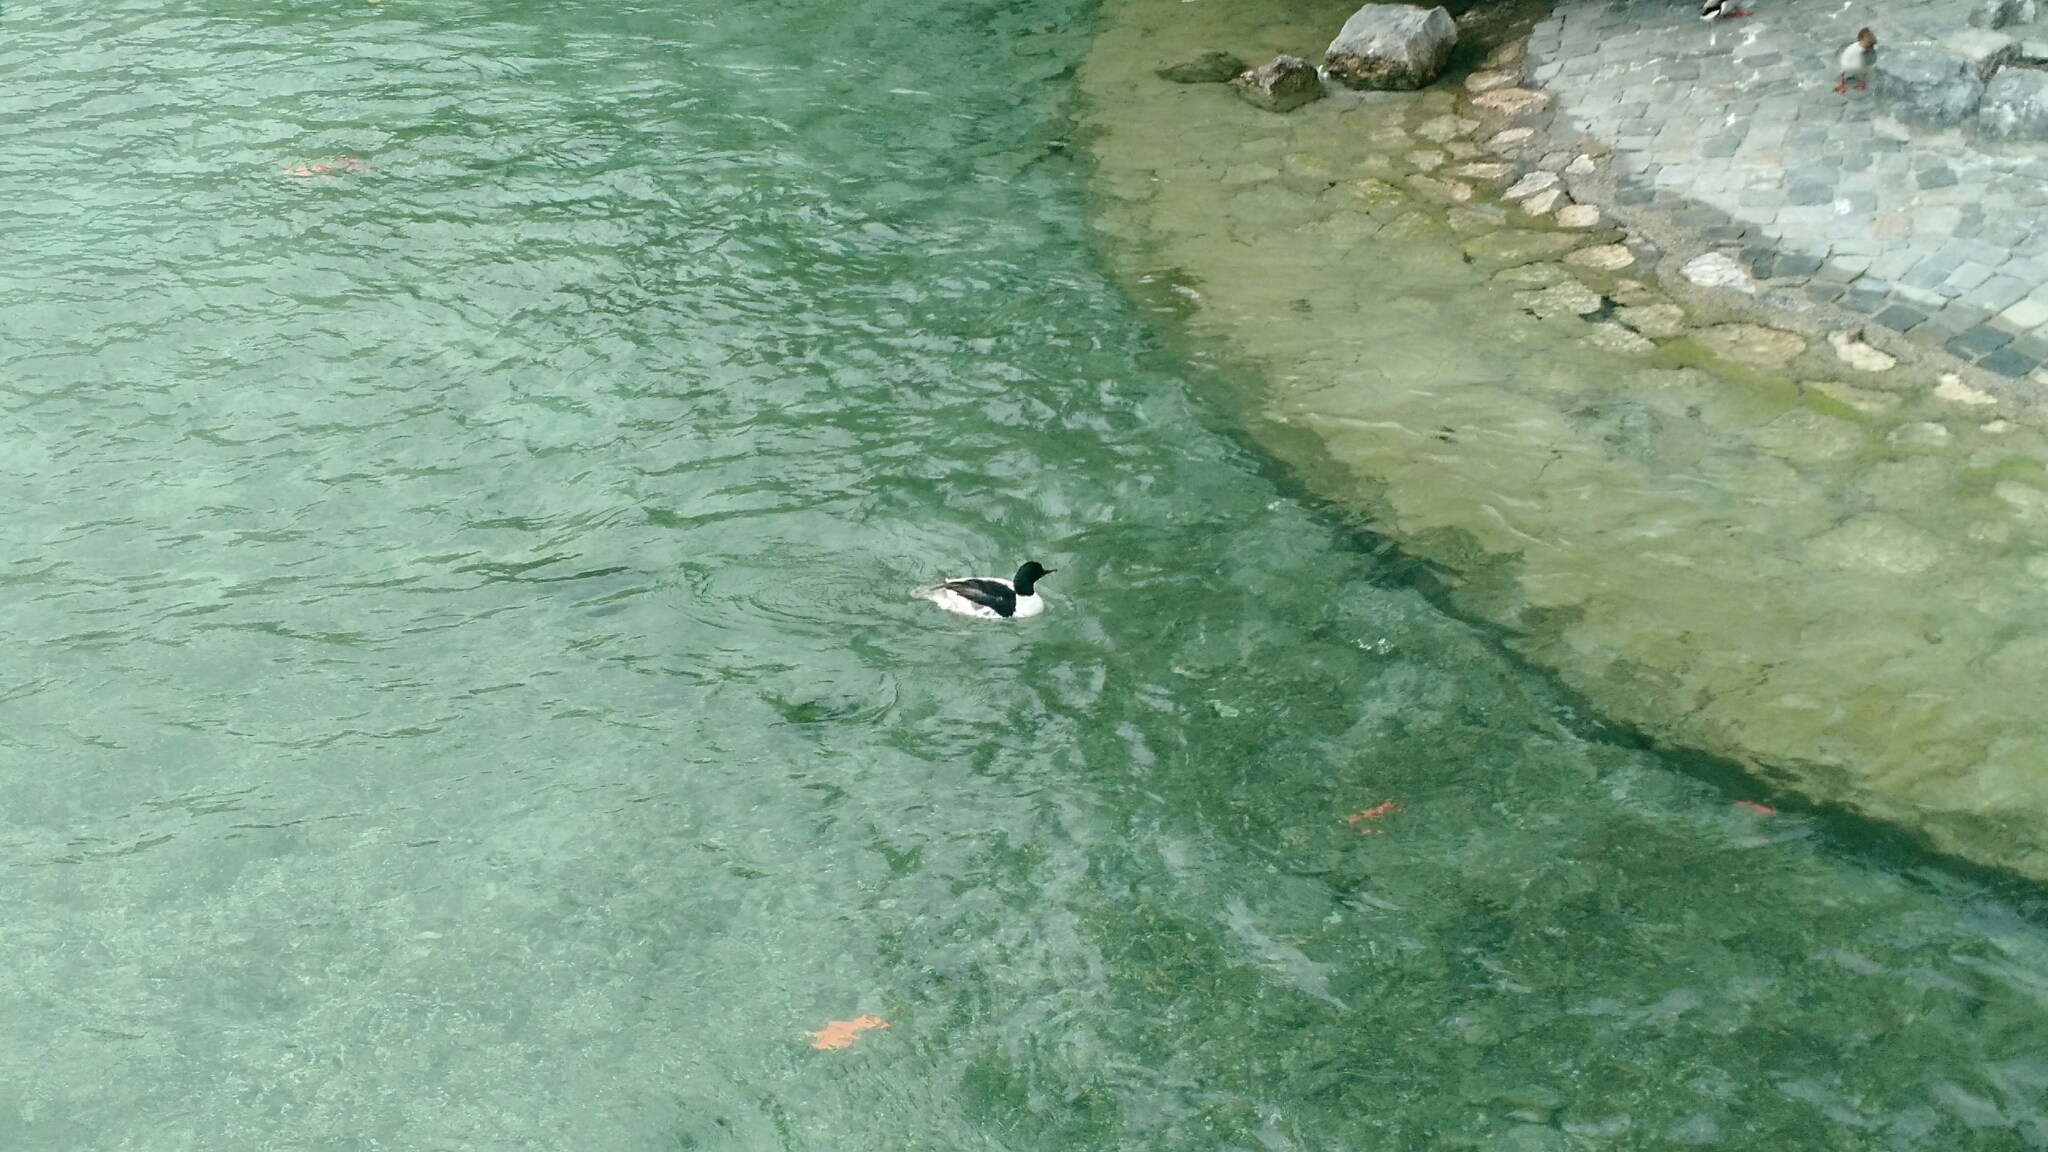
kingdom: Animalia
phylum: Chordata
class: Aves
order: Anseriformes
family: Anatidae
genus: Mergus
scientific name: Mergus merganser
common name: Common merganser
